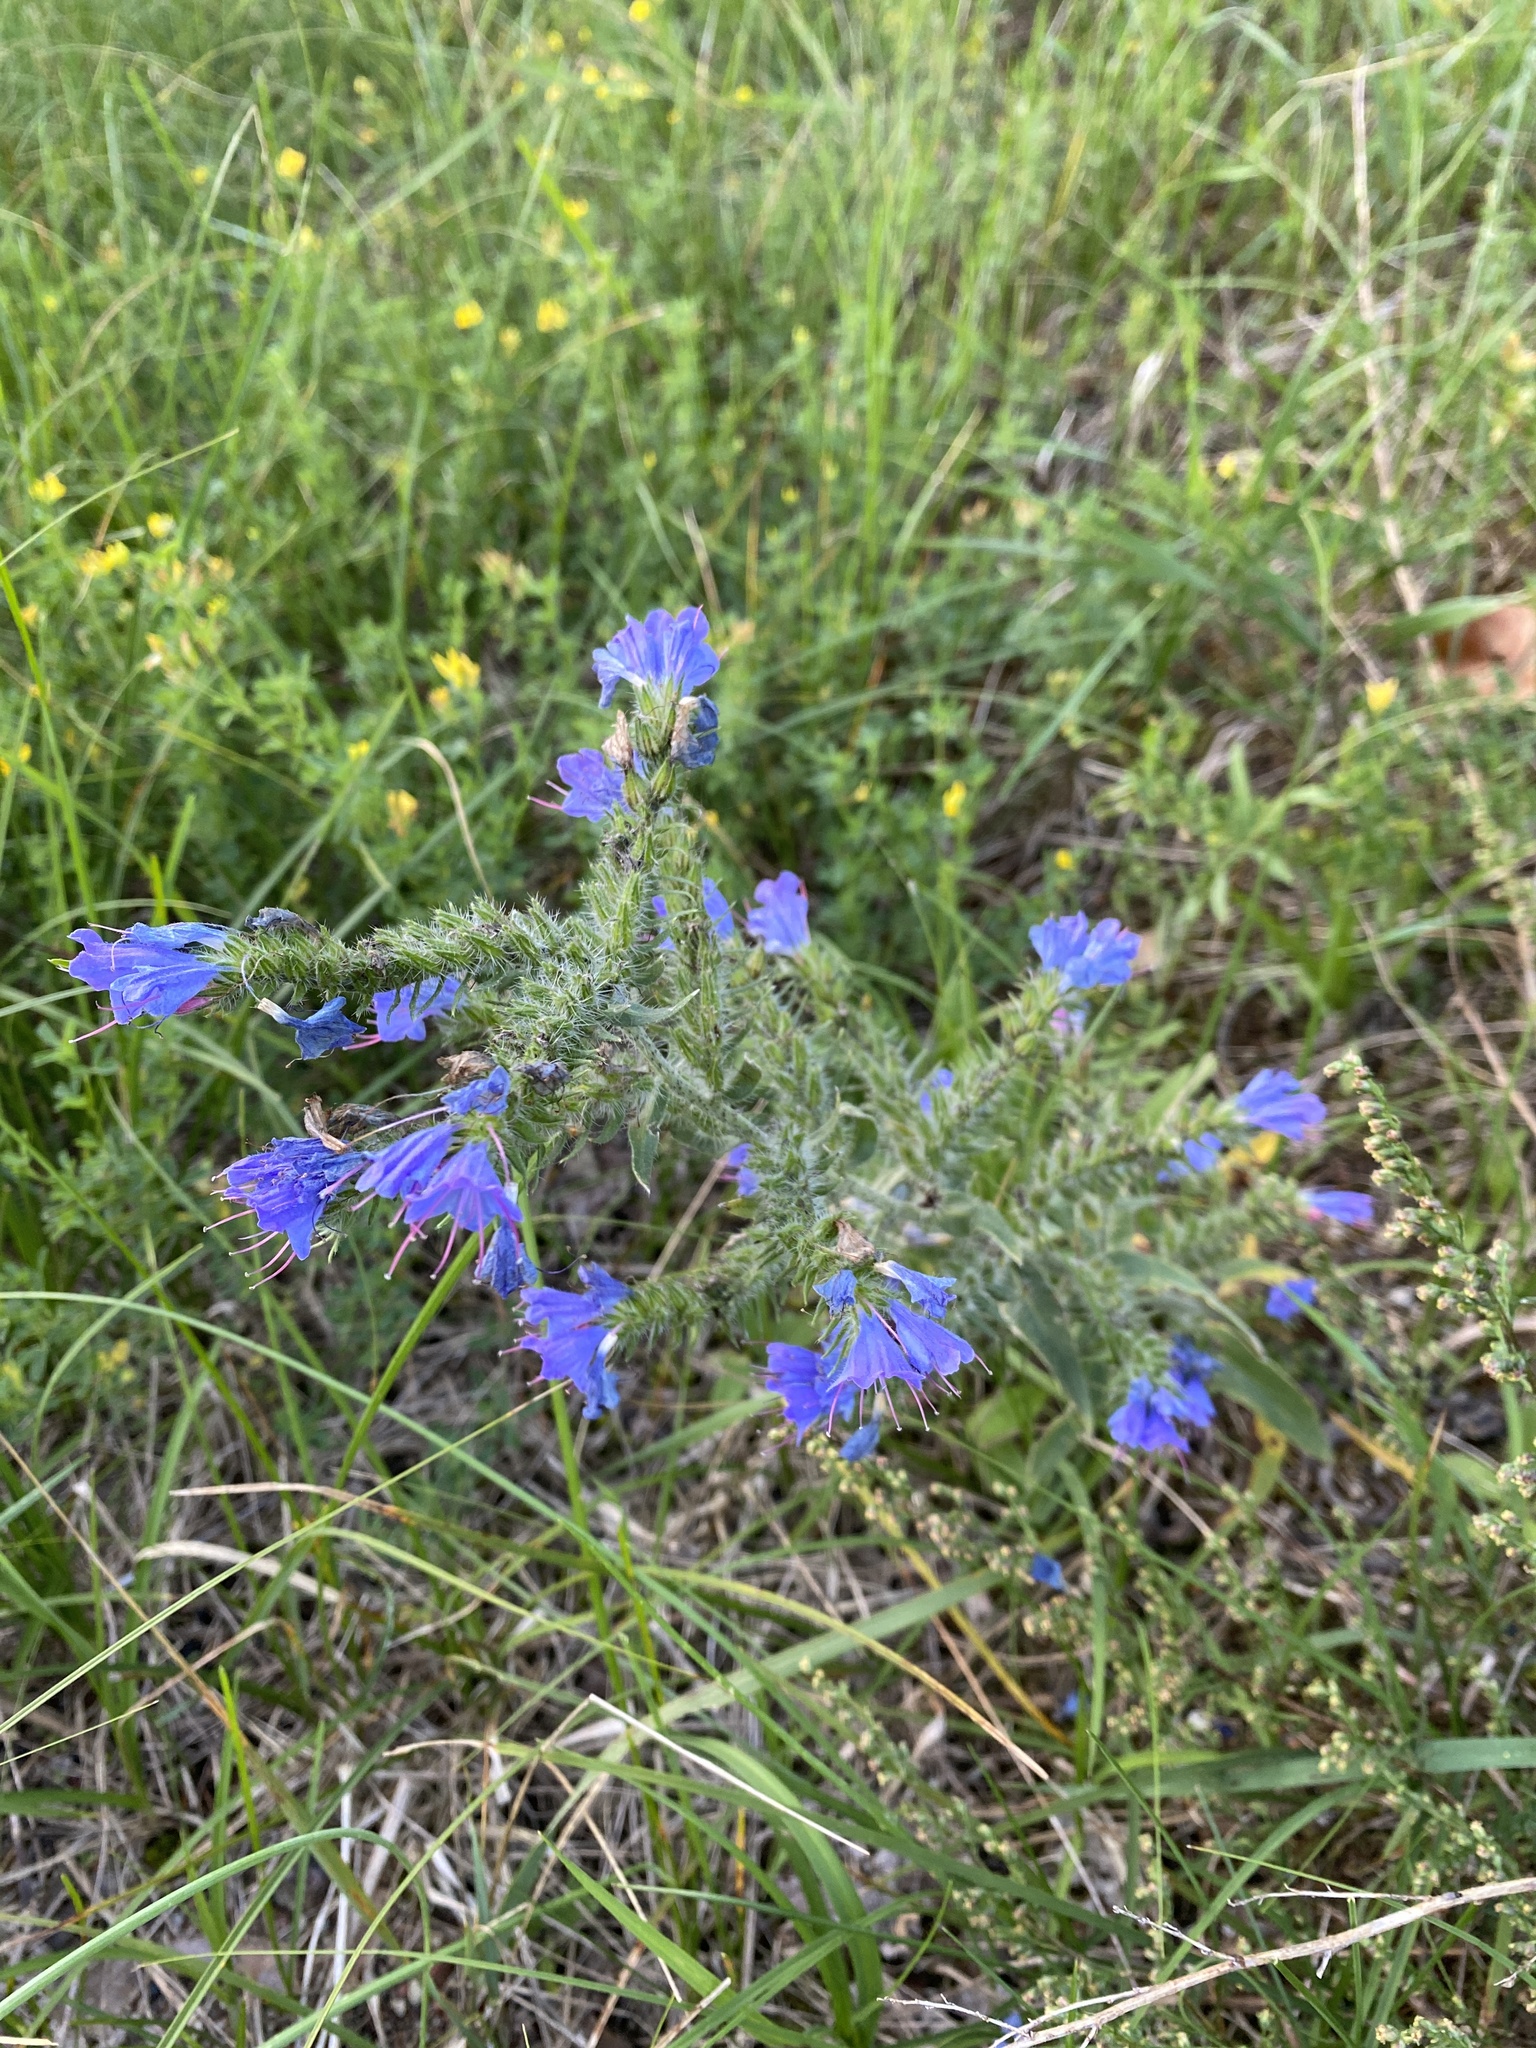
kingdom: Plantae
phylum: Tracheophyta
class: Magnoliopsida
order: Boraginales
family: Boraginaceae
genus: Echium
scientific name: Echium vulgare
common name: Common viper's bugloss
